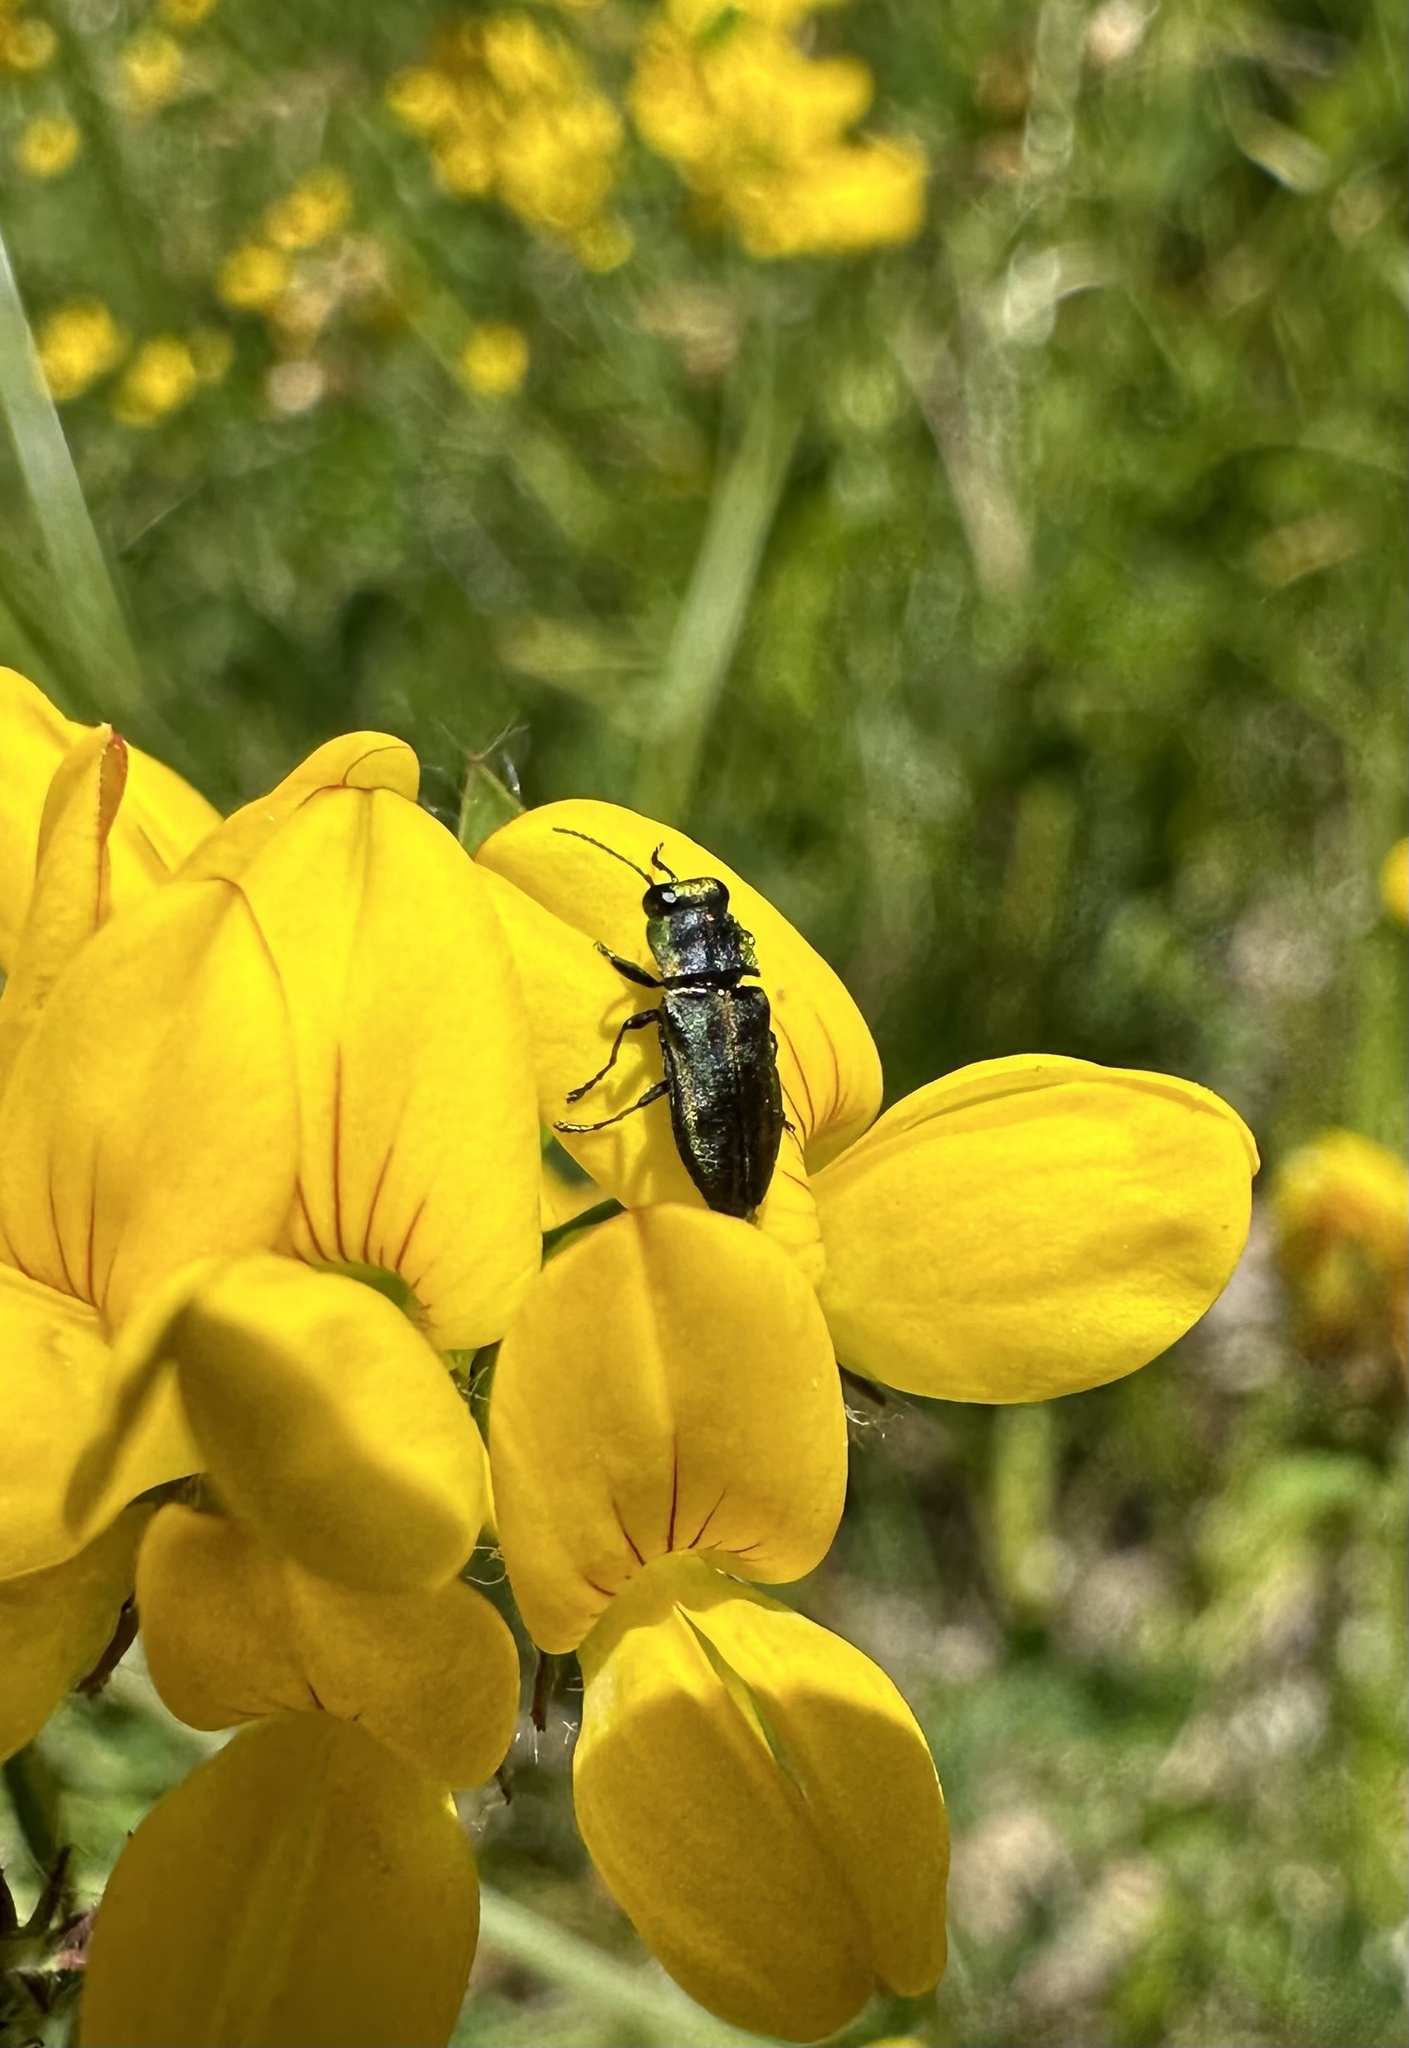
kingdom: Animalia
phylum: Arthropoda
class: Insecta
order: Coleoptera
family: Buprestidae
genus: Bilyaxia
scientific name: Bilyaxia cordillerae
